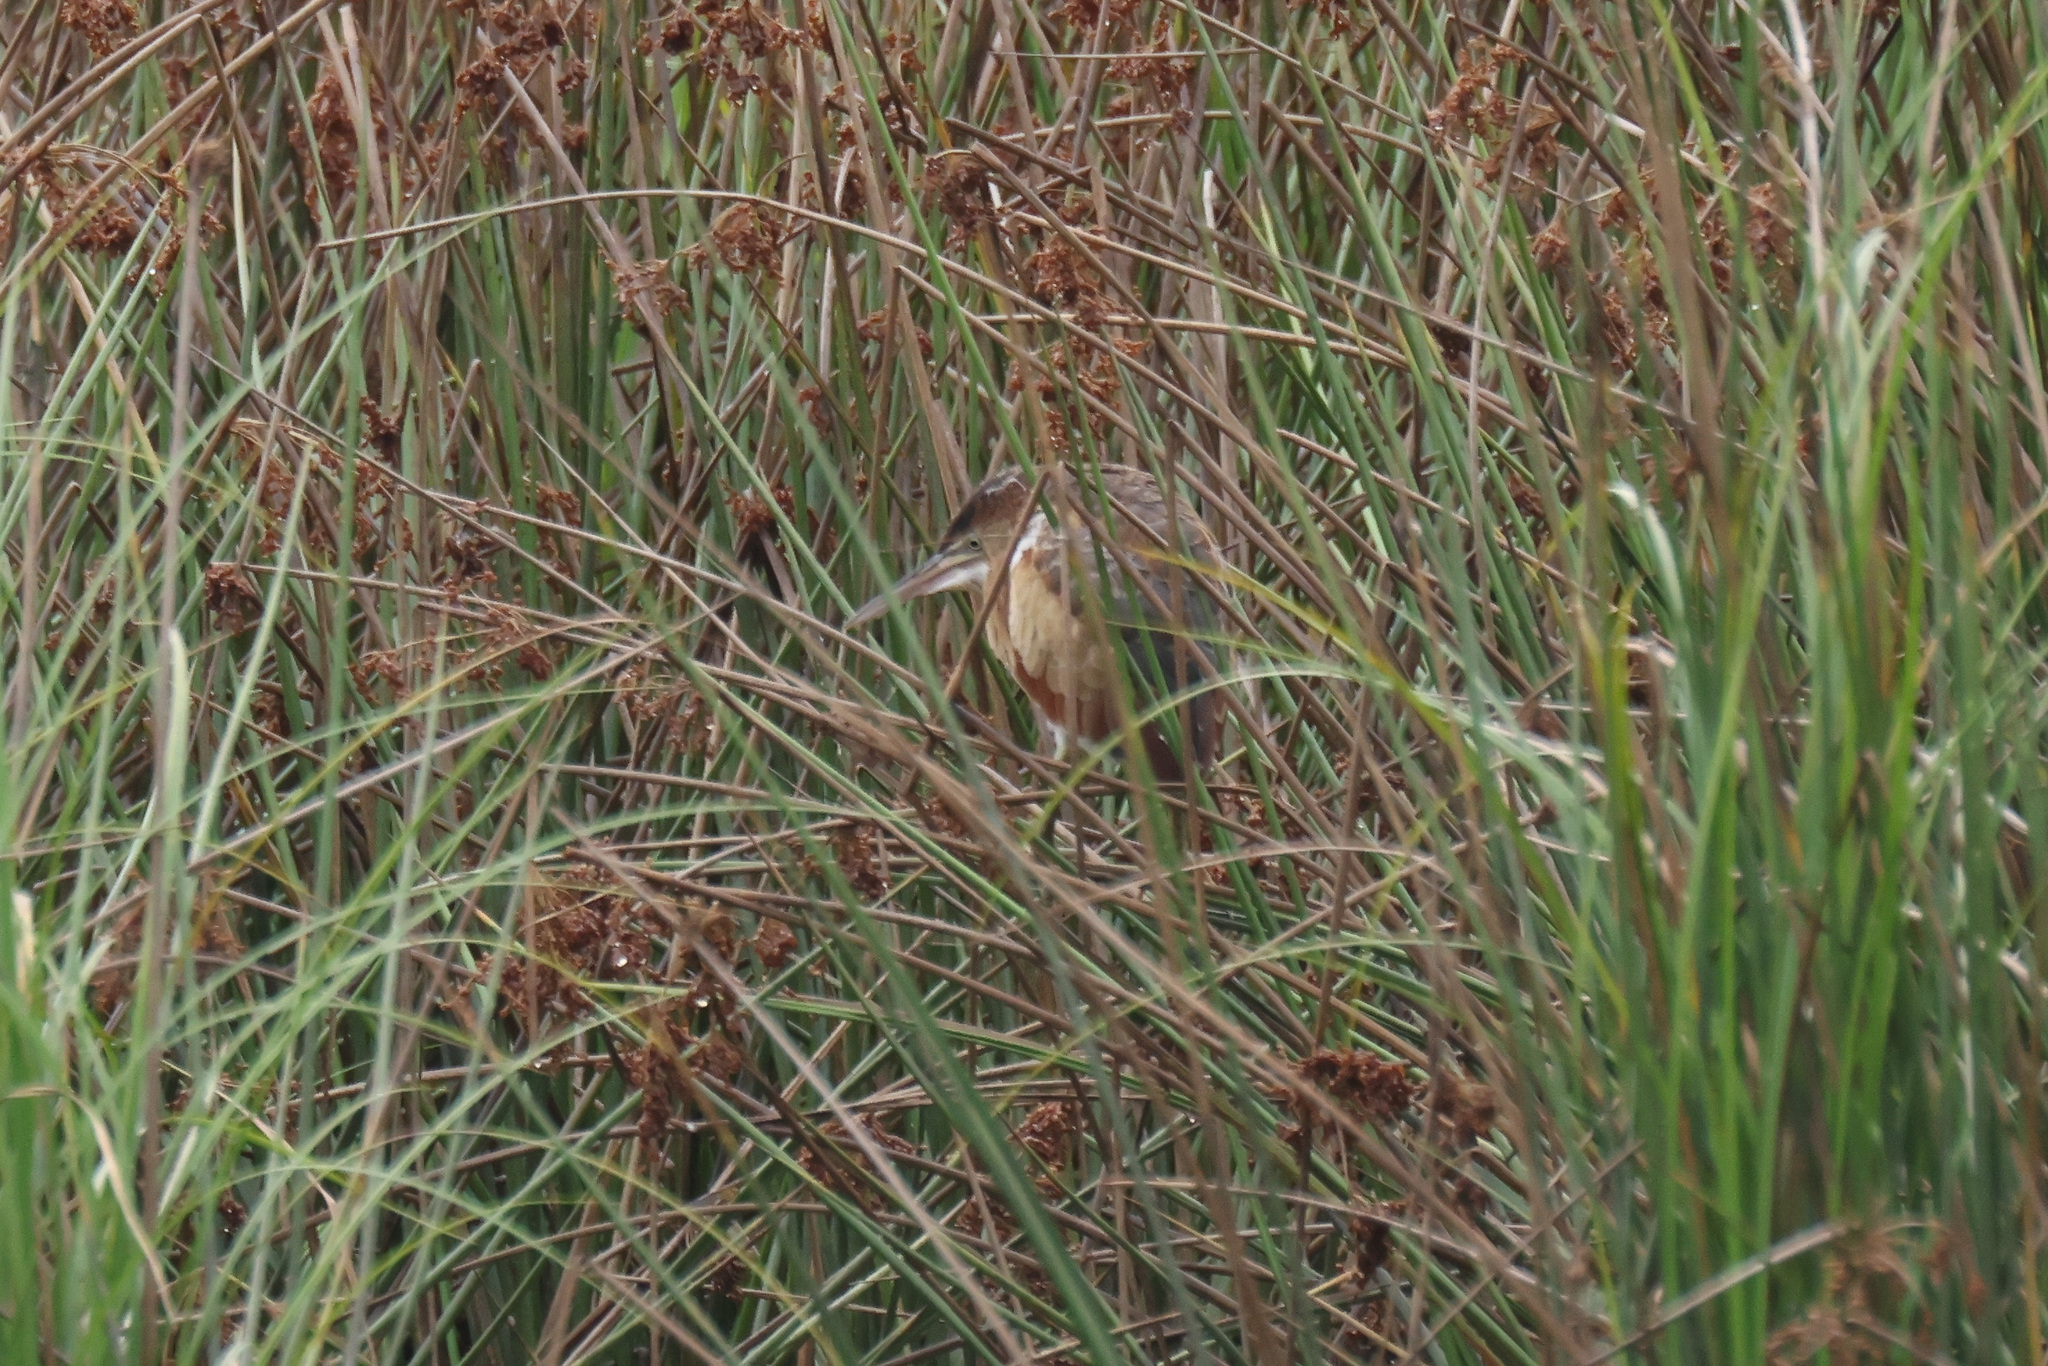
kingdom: Animalia
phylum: Chordata
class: Aves
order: Pelecaniformes
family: Ardeidae
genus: Ixobrychus
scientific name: Ixobrychus exilis
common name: Least bittern
